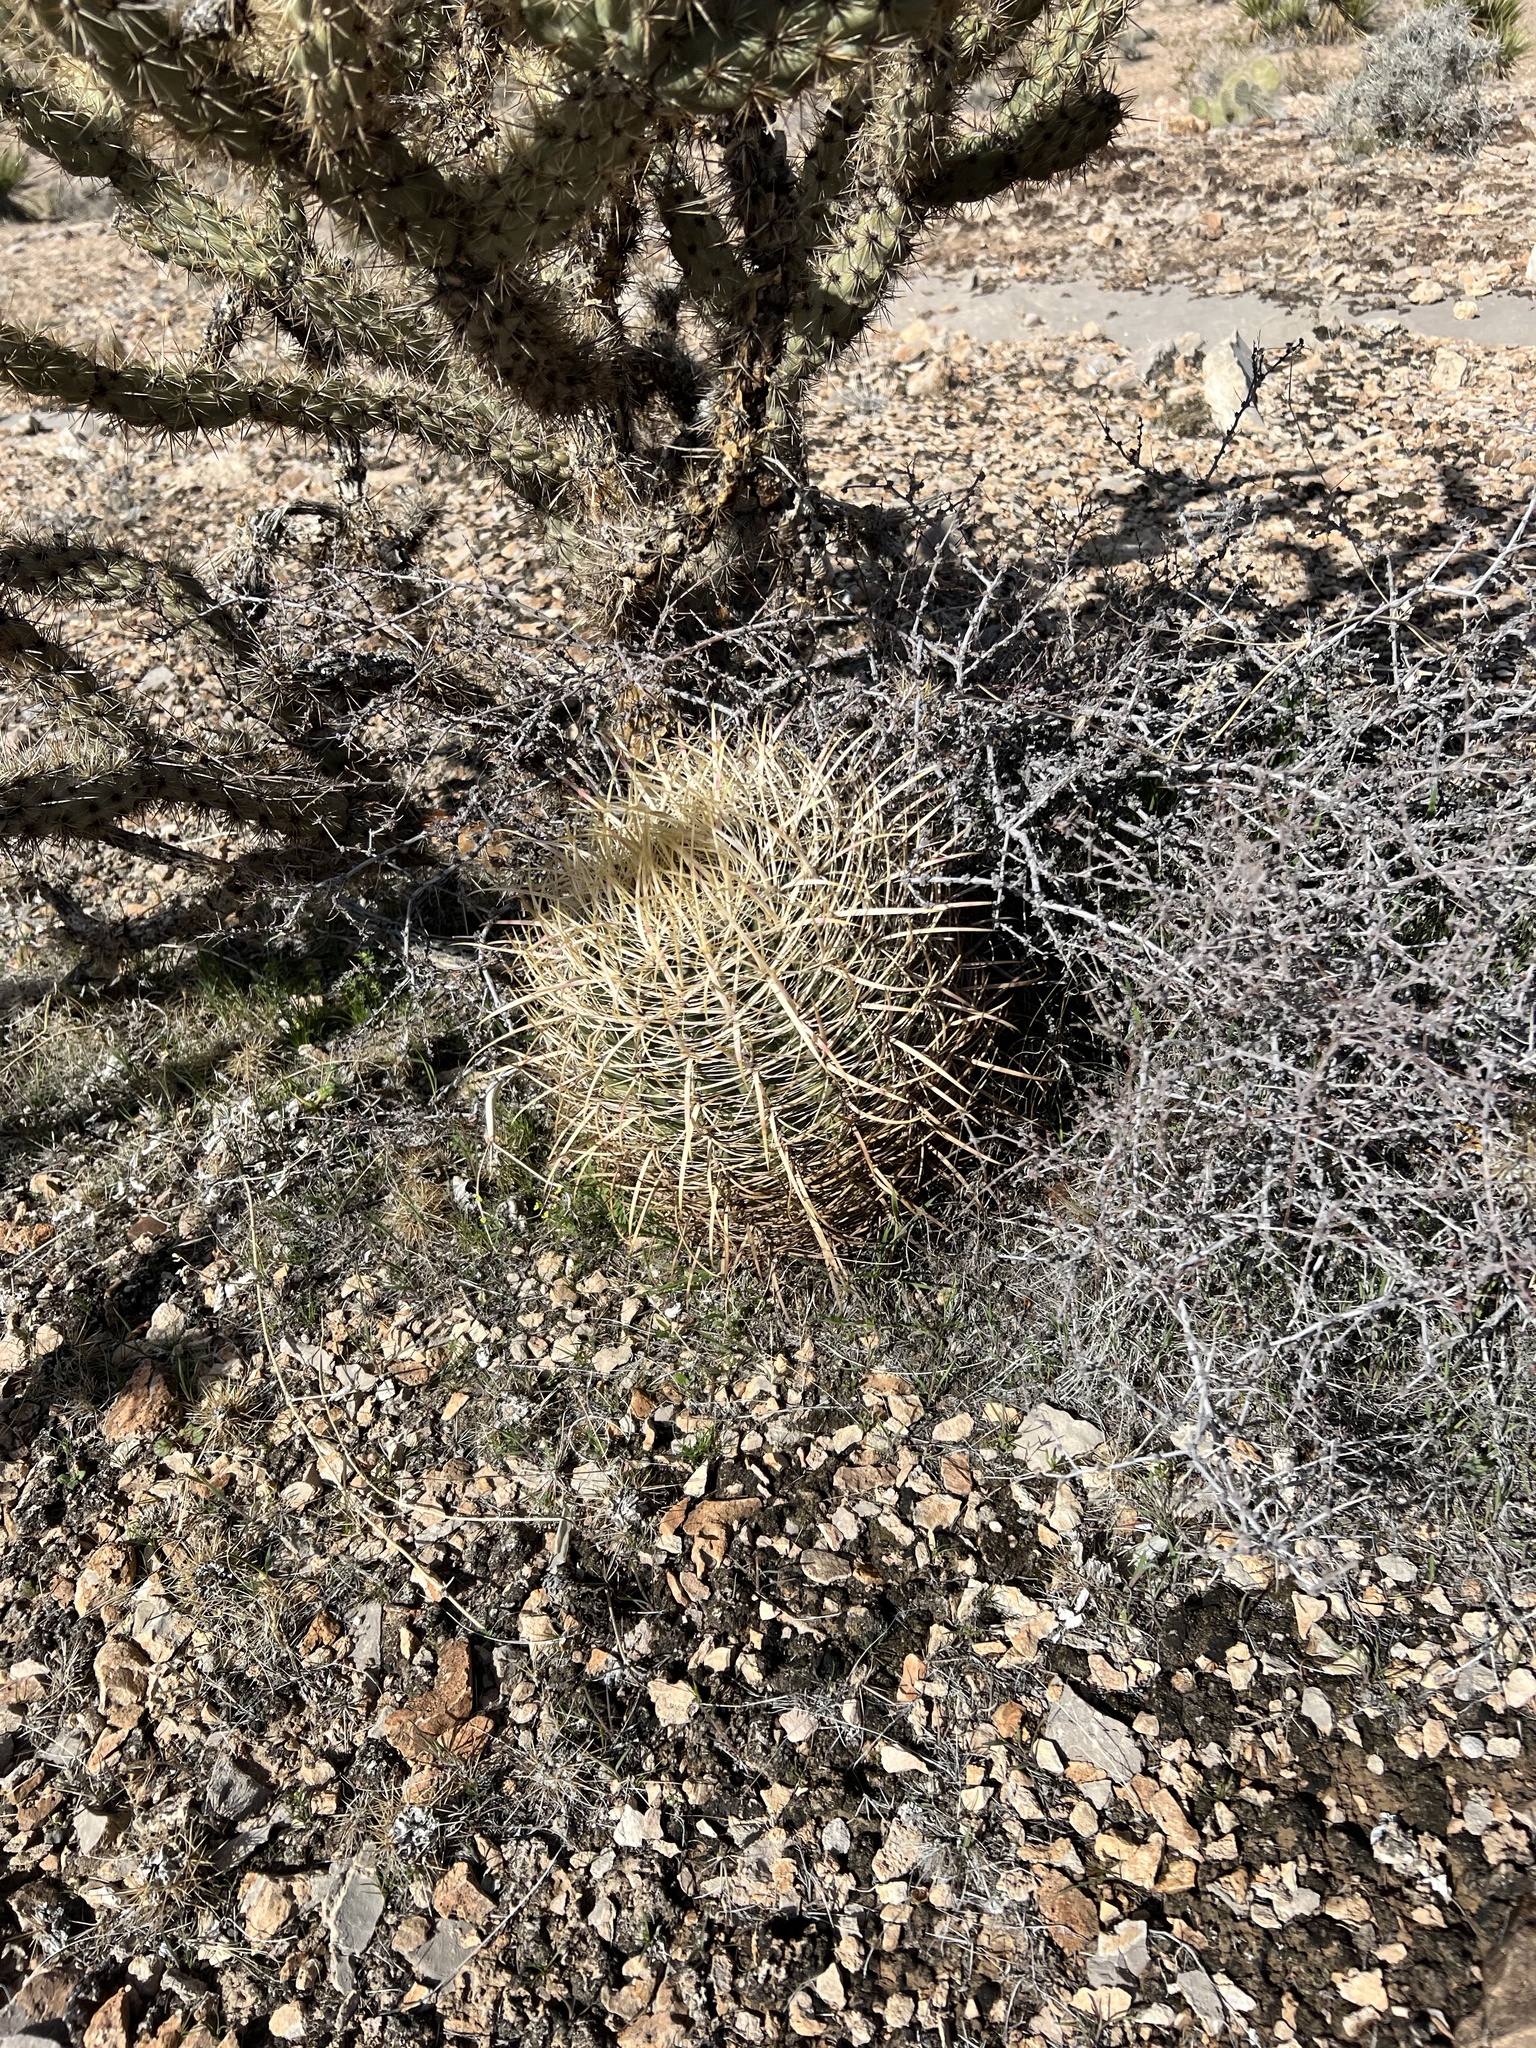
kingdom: Plantae
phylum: Tracheophyta
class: Magnoliopsida
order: Caryophyllales
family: Cactaceae
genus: Ferocactus
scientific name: Ferocactus cylindraceus
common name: California barrel cactus
